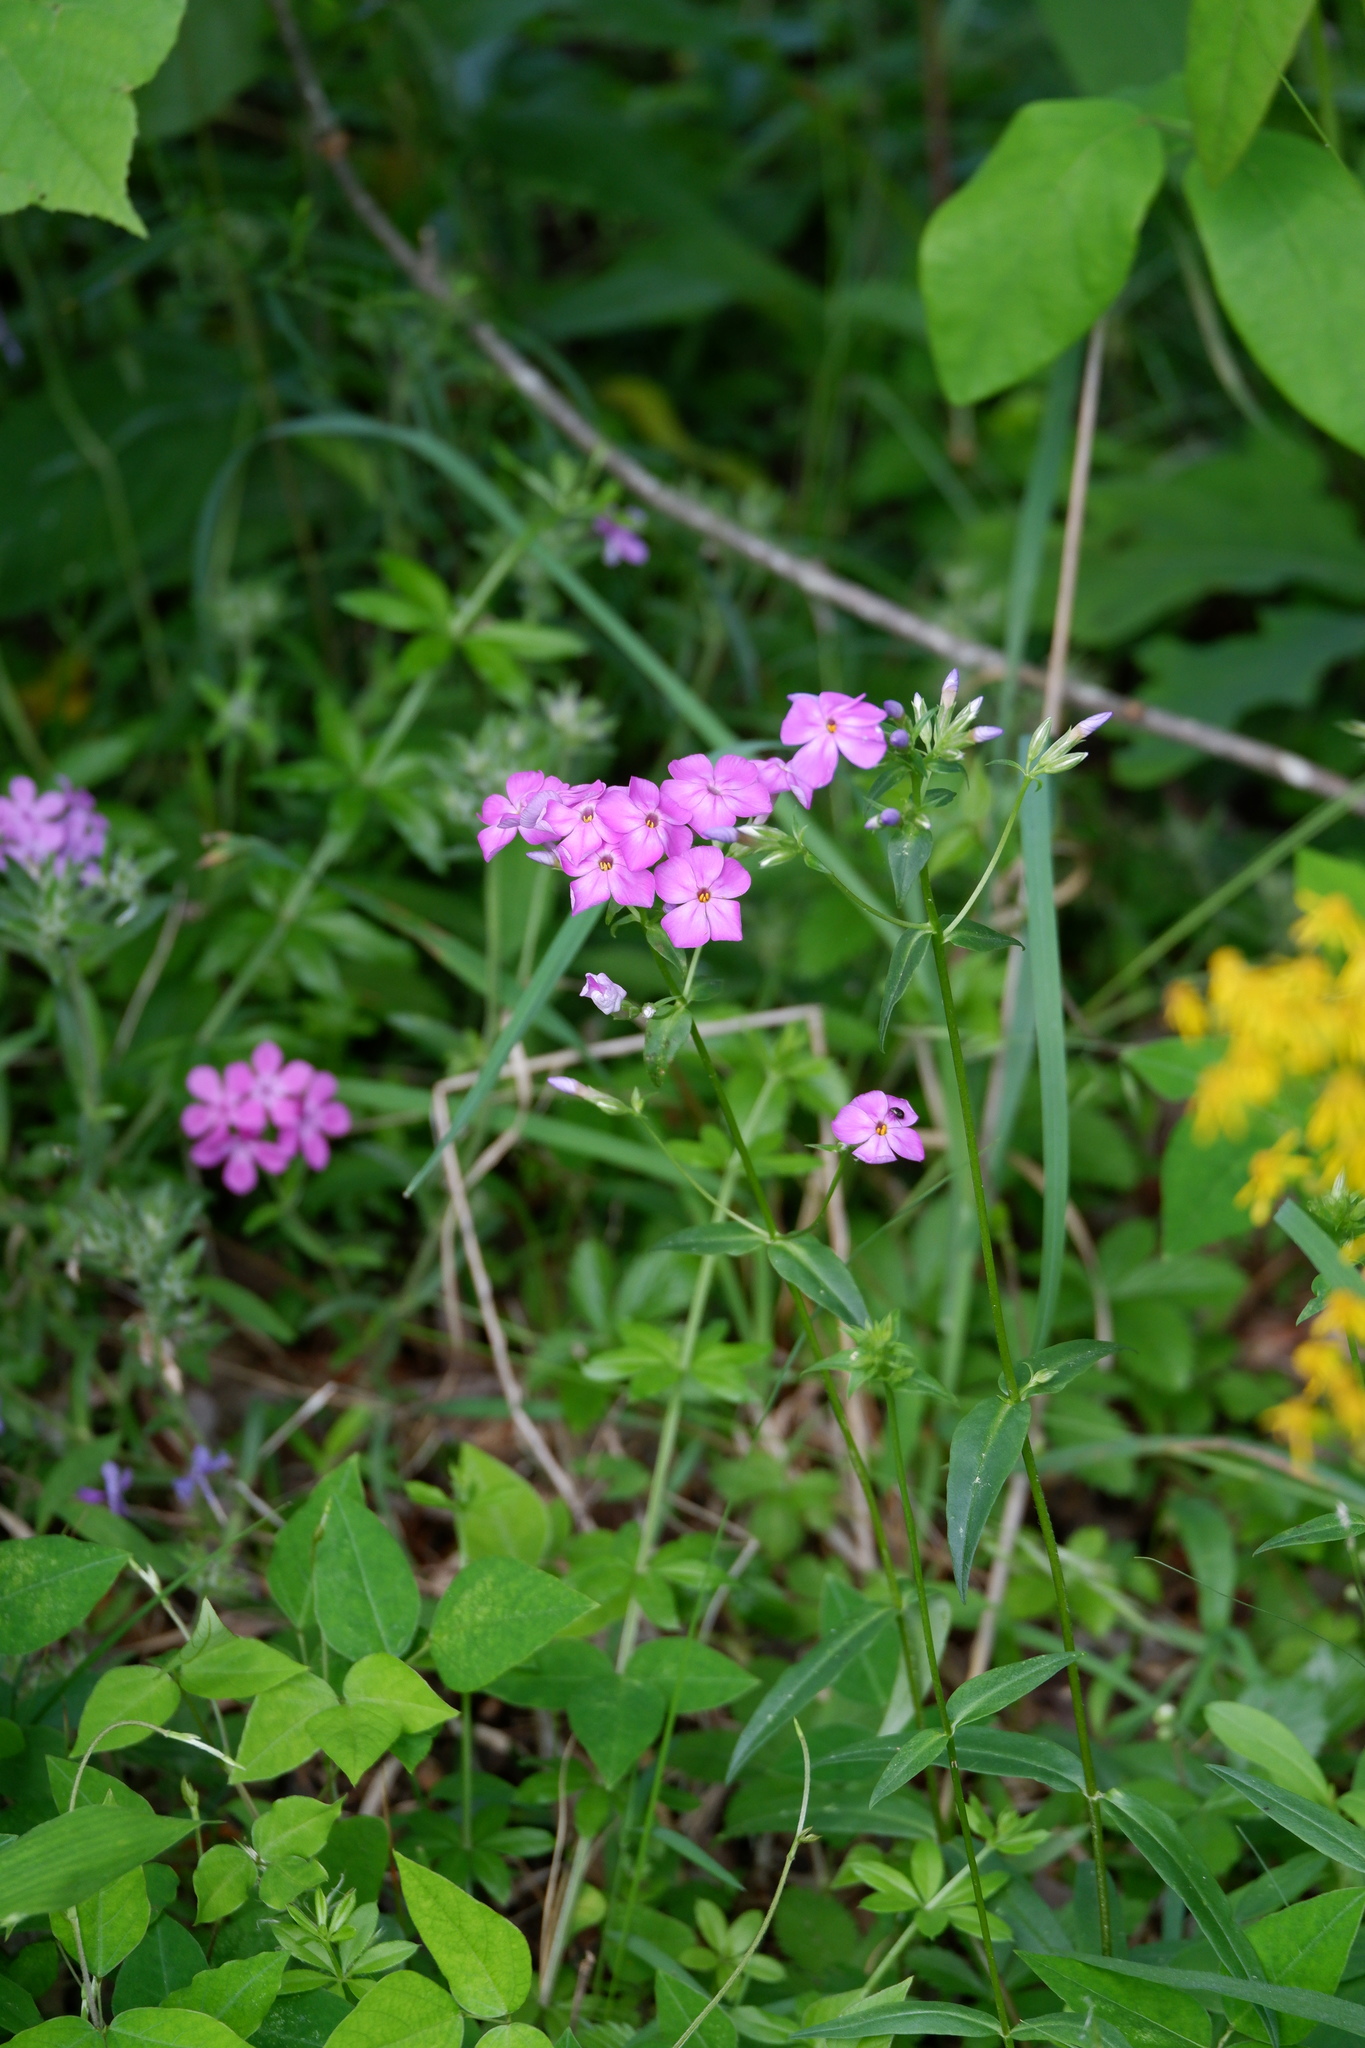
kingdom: Plantae
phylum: Tracheophyta
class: Magnoliopsida
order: Ericales
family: Polemoniaceae
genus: Phlox
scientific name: Phlox carolina
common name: Thick-leaf phlox
